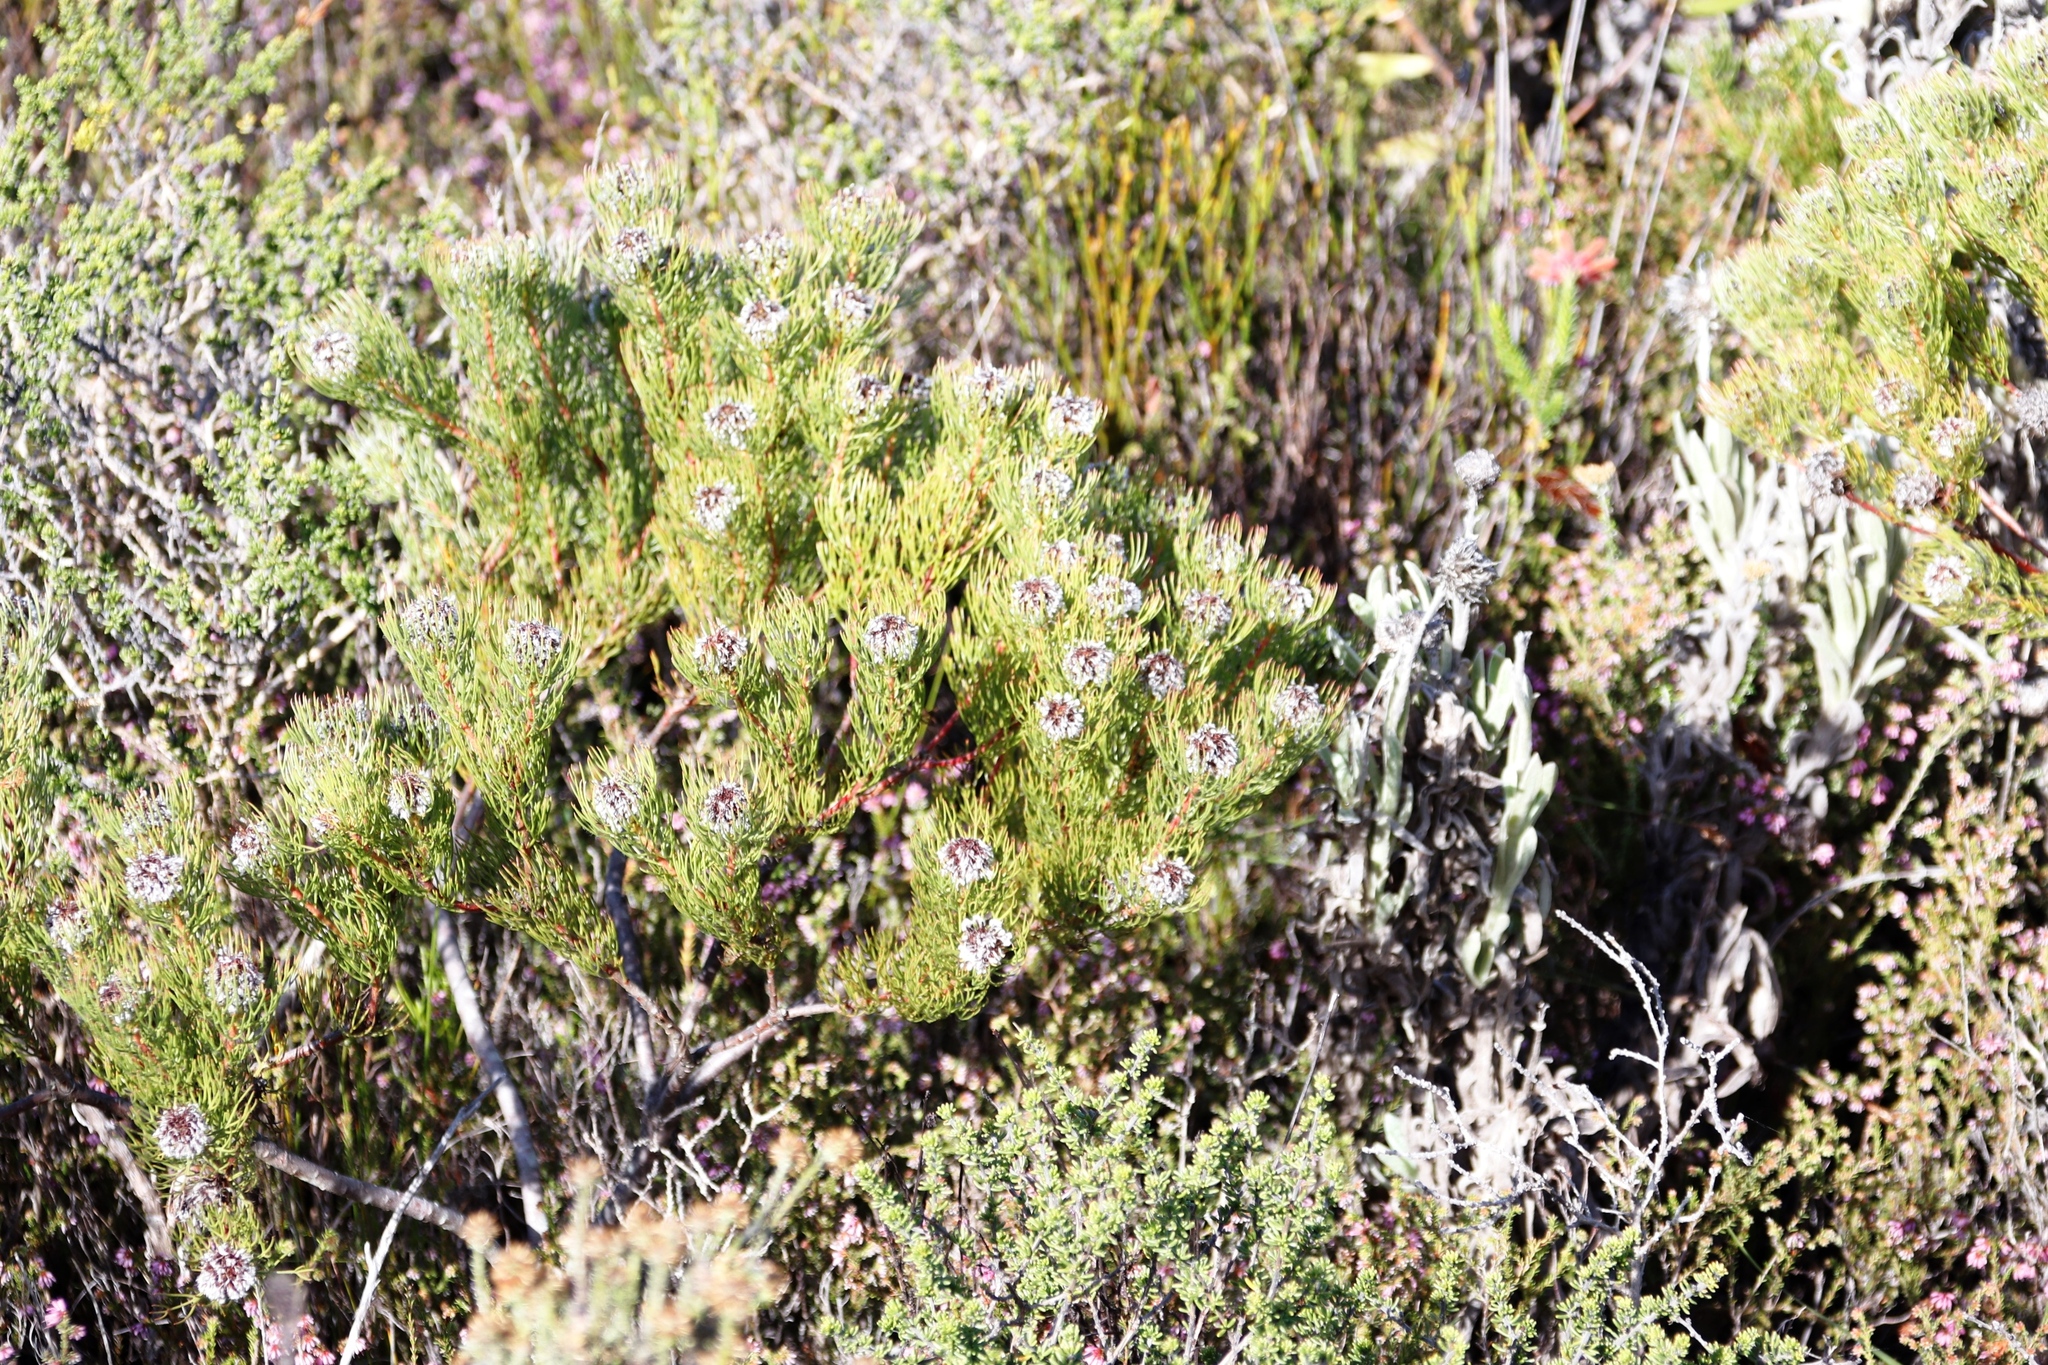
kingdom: Plantae
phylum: Tracheophyta
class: Magnoliopsida
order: Proteales
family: Proteaceae
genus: Serruria
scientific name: Serruria villosa
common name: Golden spiderhead
